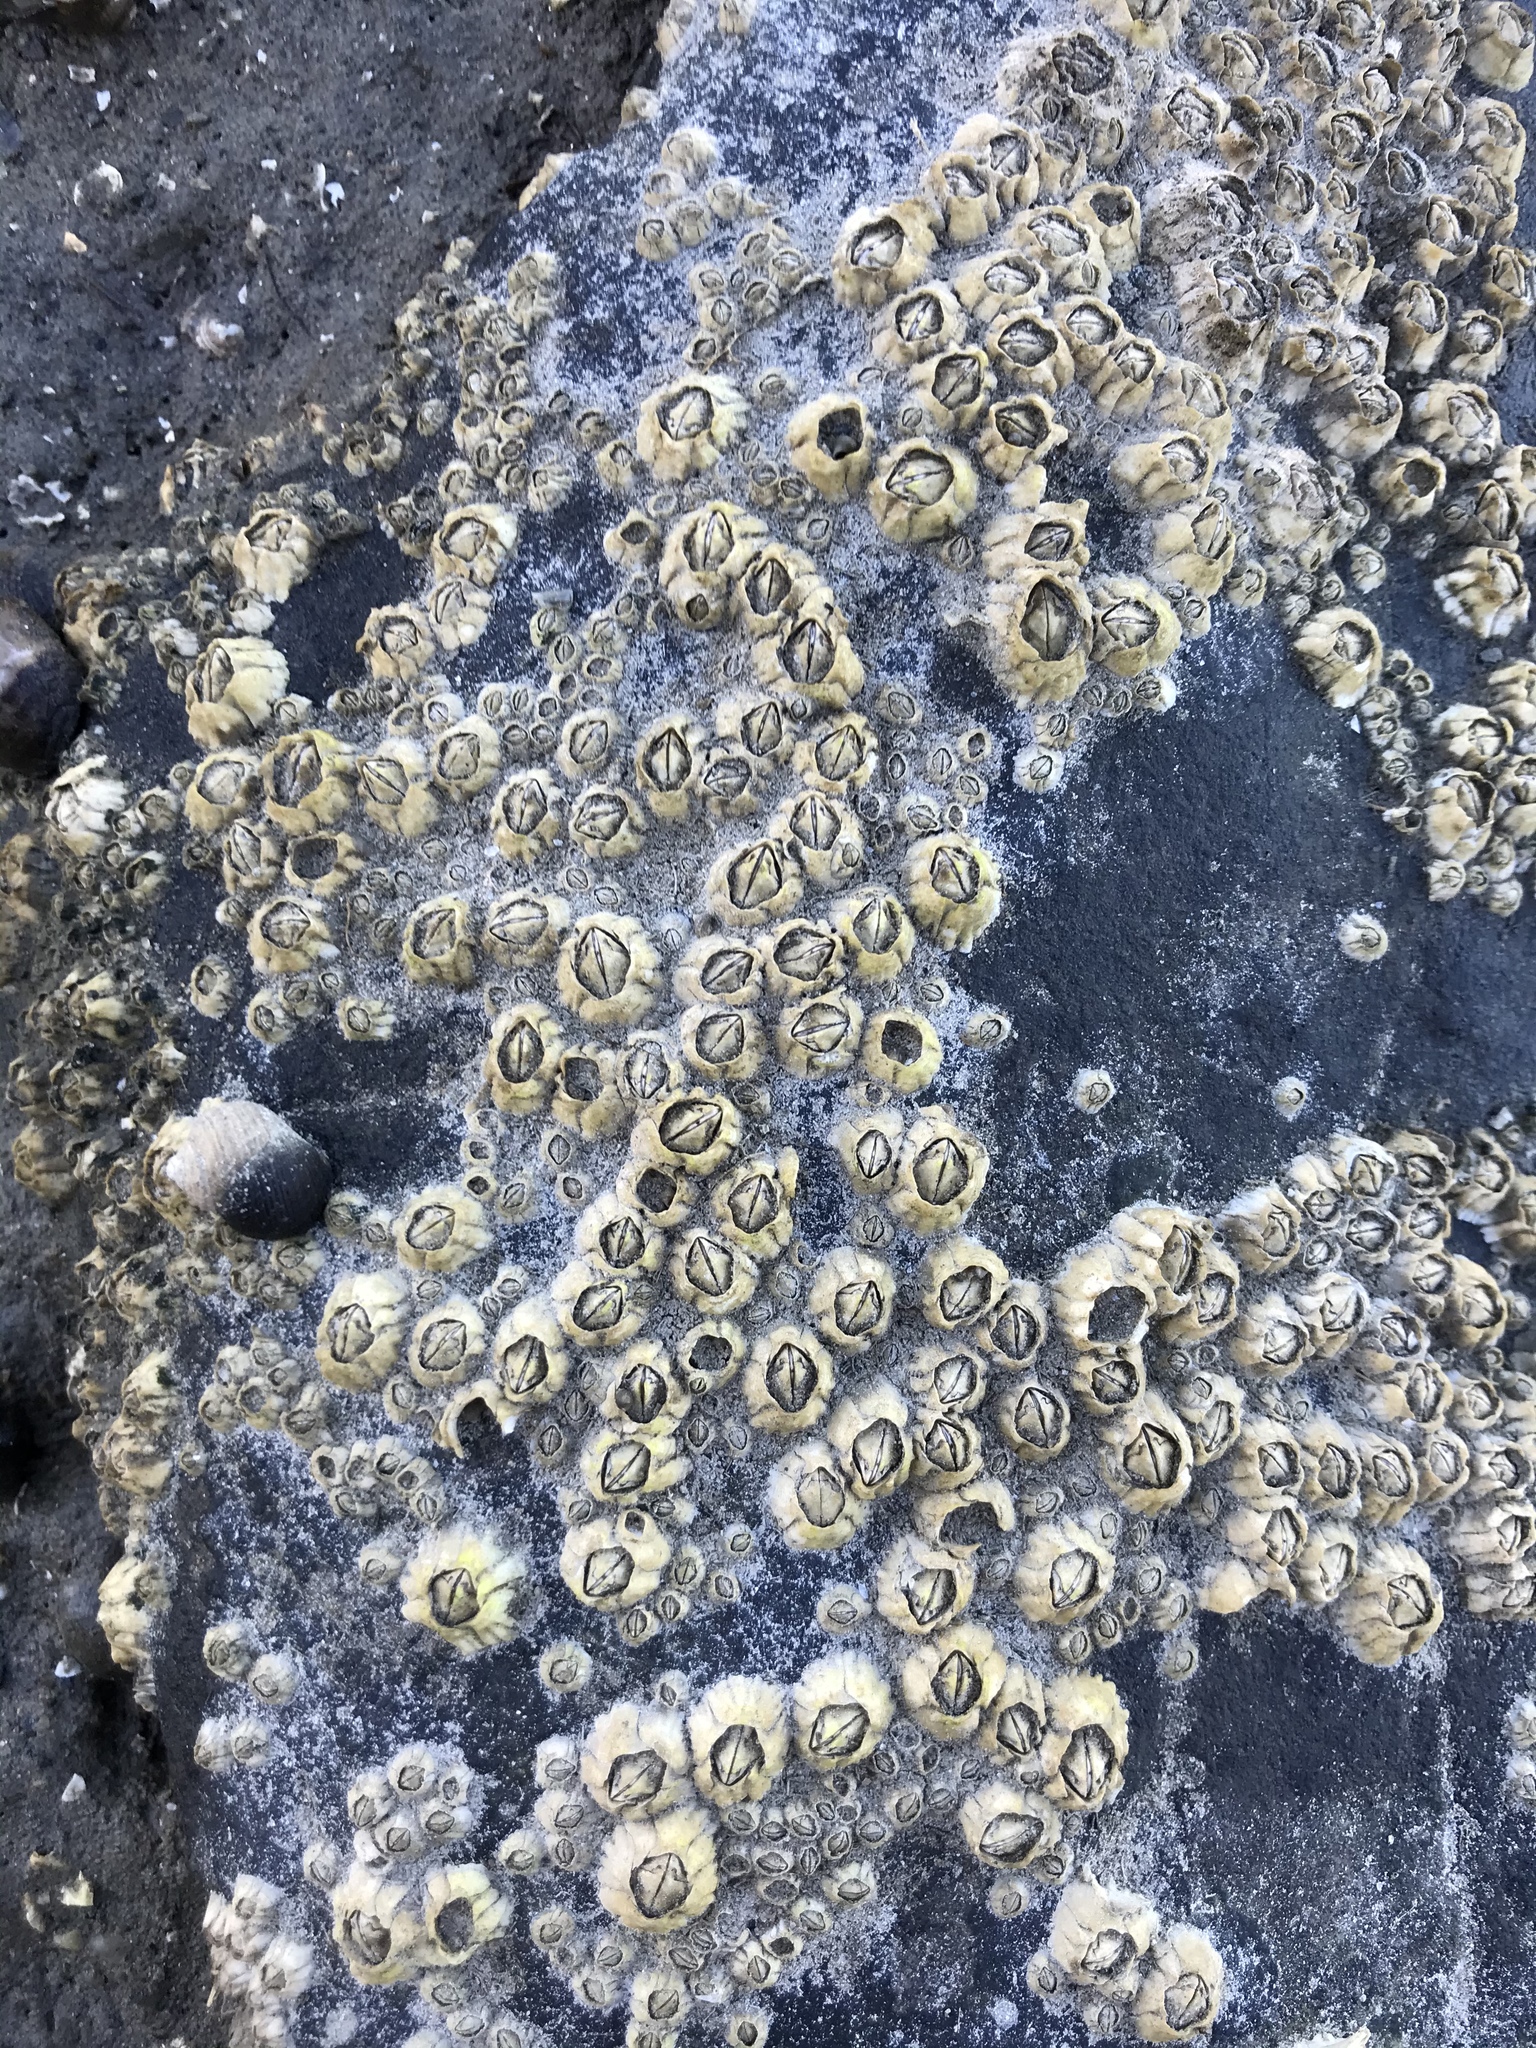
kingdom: Animalia
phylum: Arthropoda
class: Maxillopoda
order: Sessilia
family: Archaeobalanidae
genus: Semibalanus
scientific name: Semibalanus balanoides
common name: Acorn barnacle
